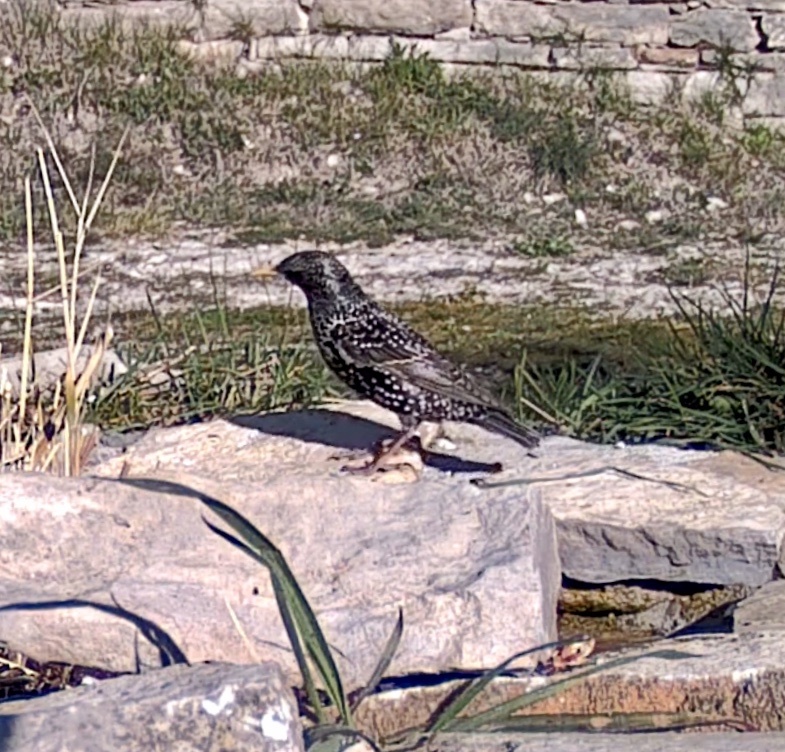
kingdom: Animalia
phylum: Chordata
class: Aves
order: Passeriformes
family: Sturnidae
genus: Sturnus
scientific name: Sturnus vulgaris
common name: Common starling
